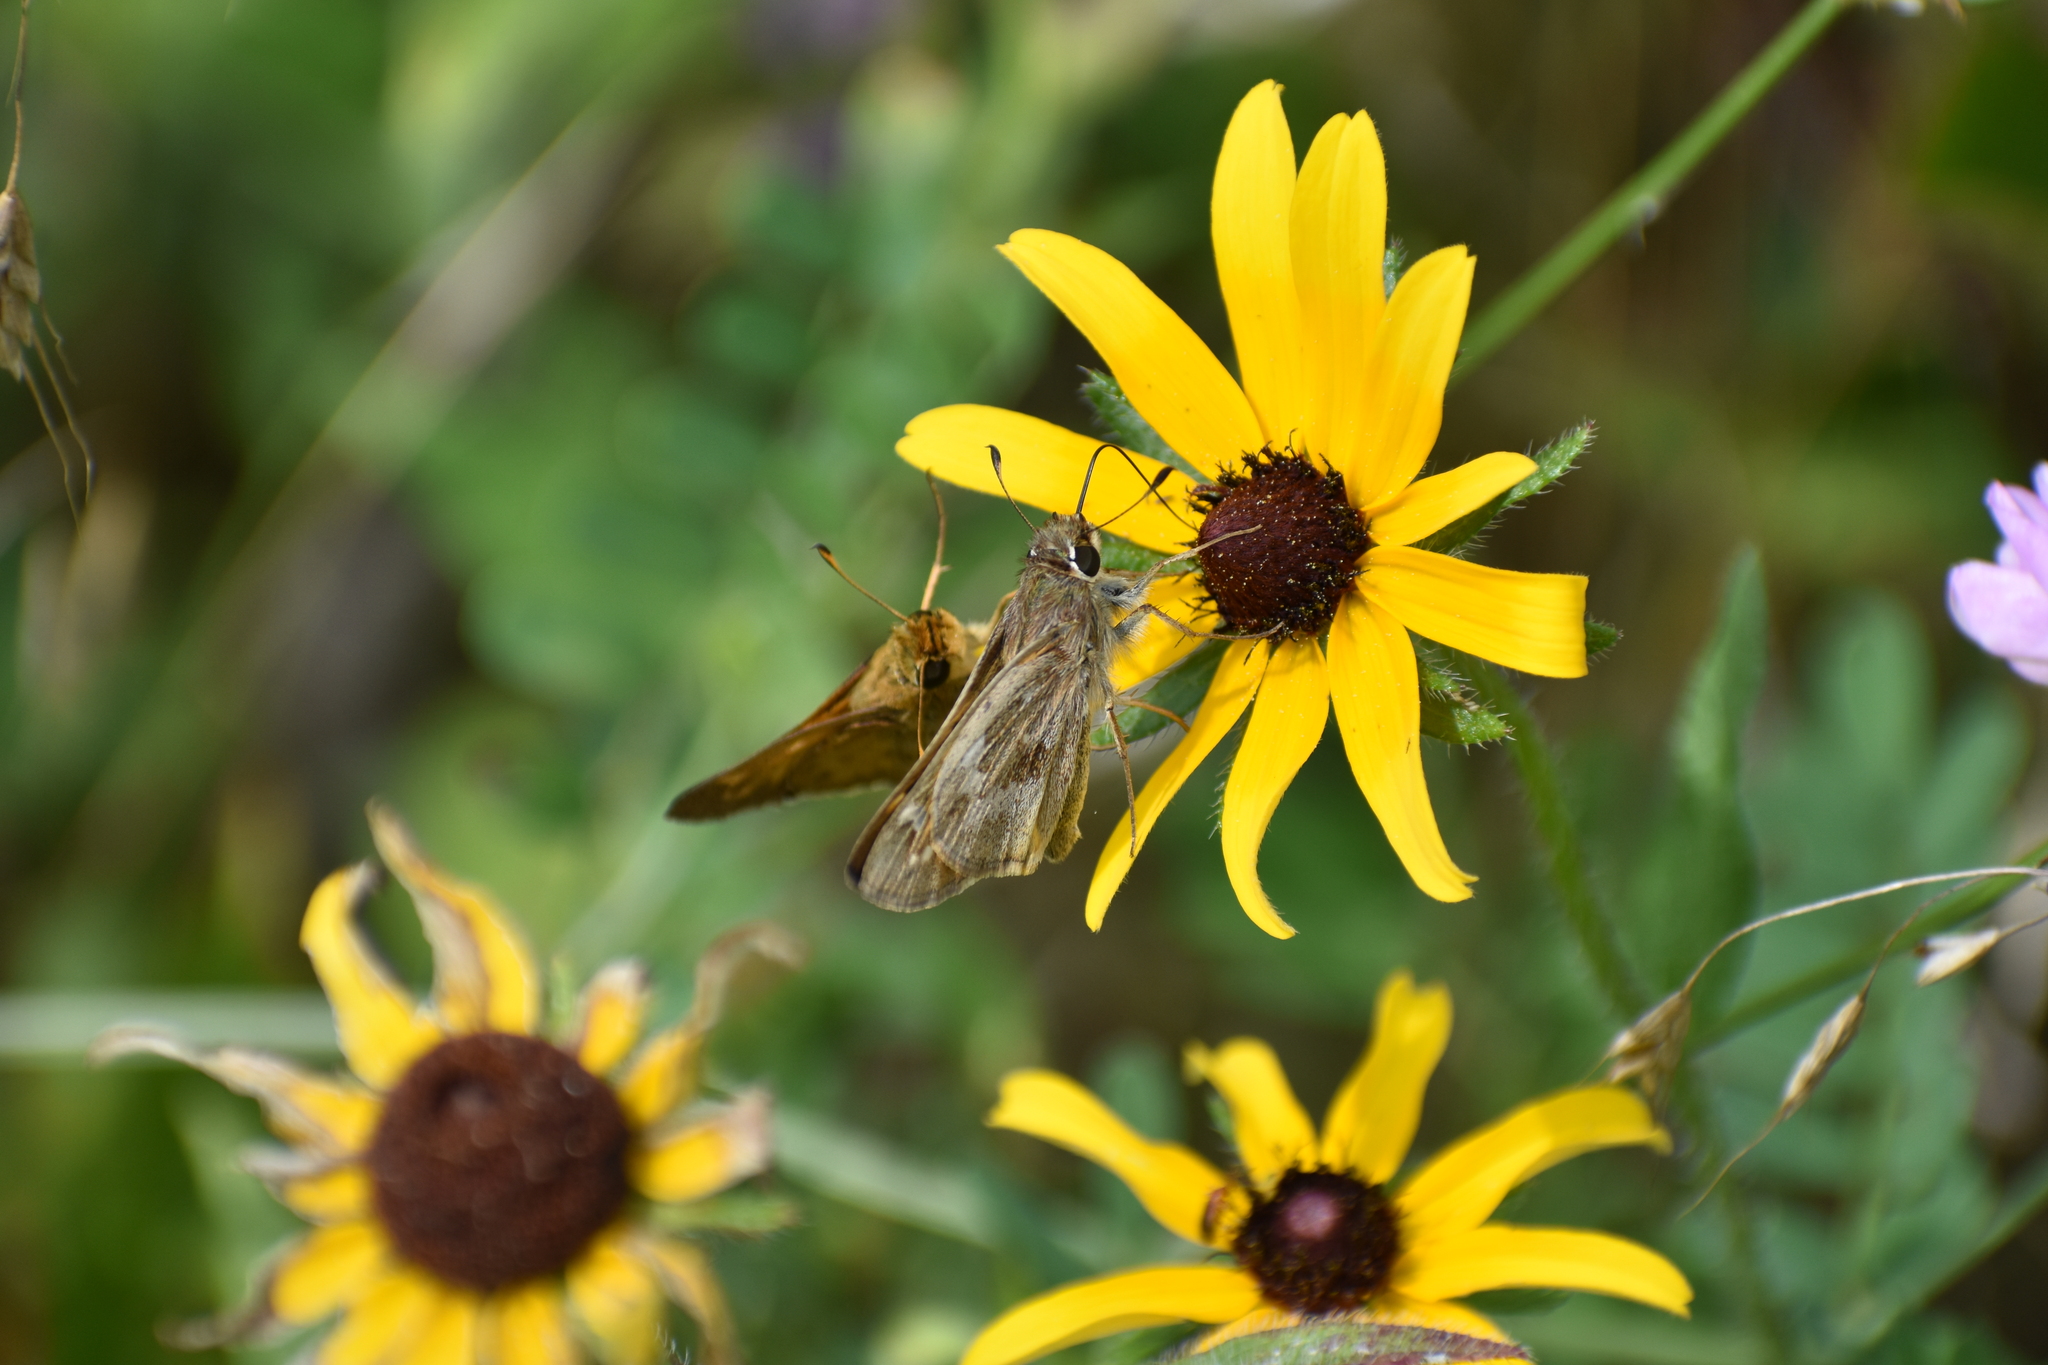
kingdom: Animalia
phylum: Arthropoda
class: Insecta
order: Lepidoptera
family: Hesperiidae
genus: Atalopedes
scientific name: Atalopedes
